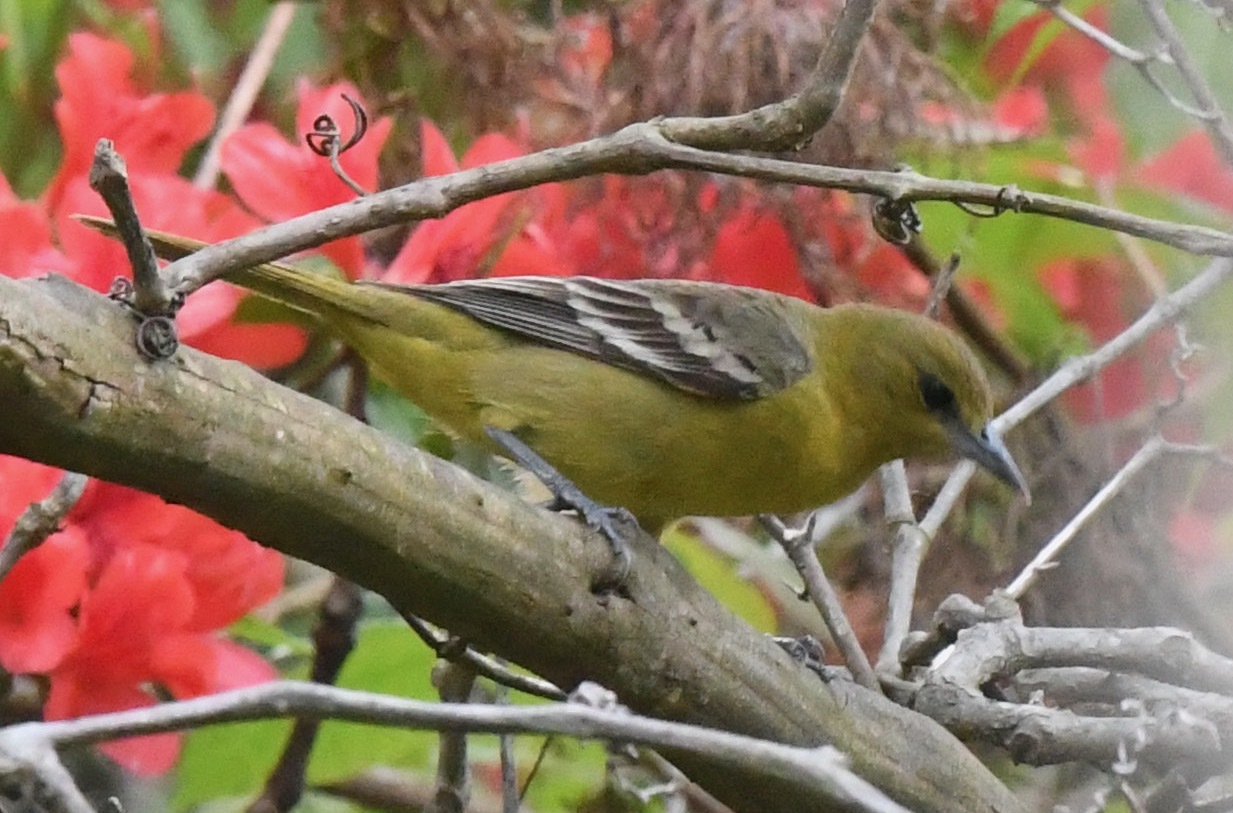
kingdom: Animalia
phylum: Chordata
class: Aves
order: Passeriformes
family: Icteridae
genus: Icterus
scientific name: Icterus galbula
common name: Baltimore oriole
